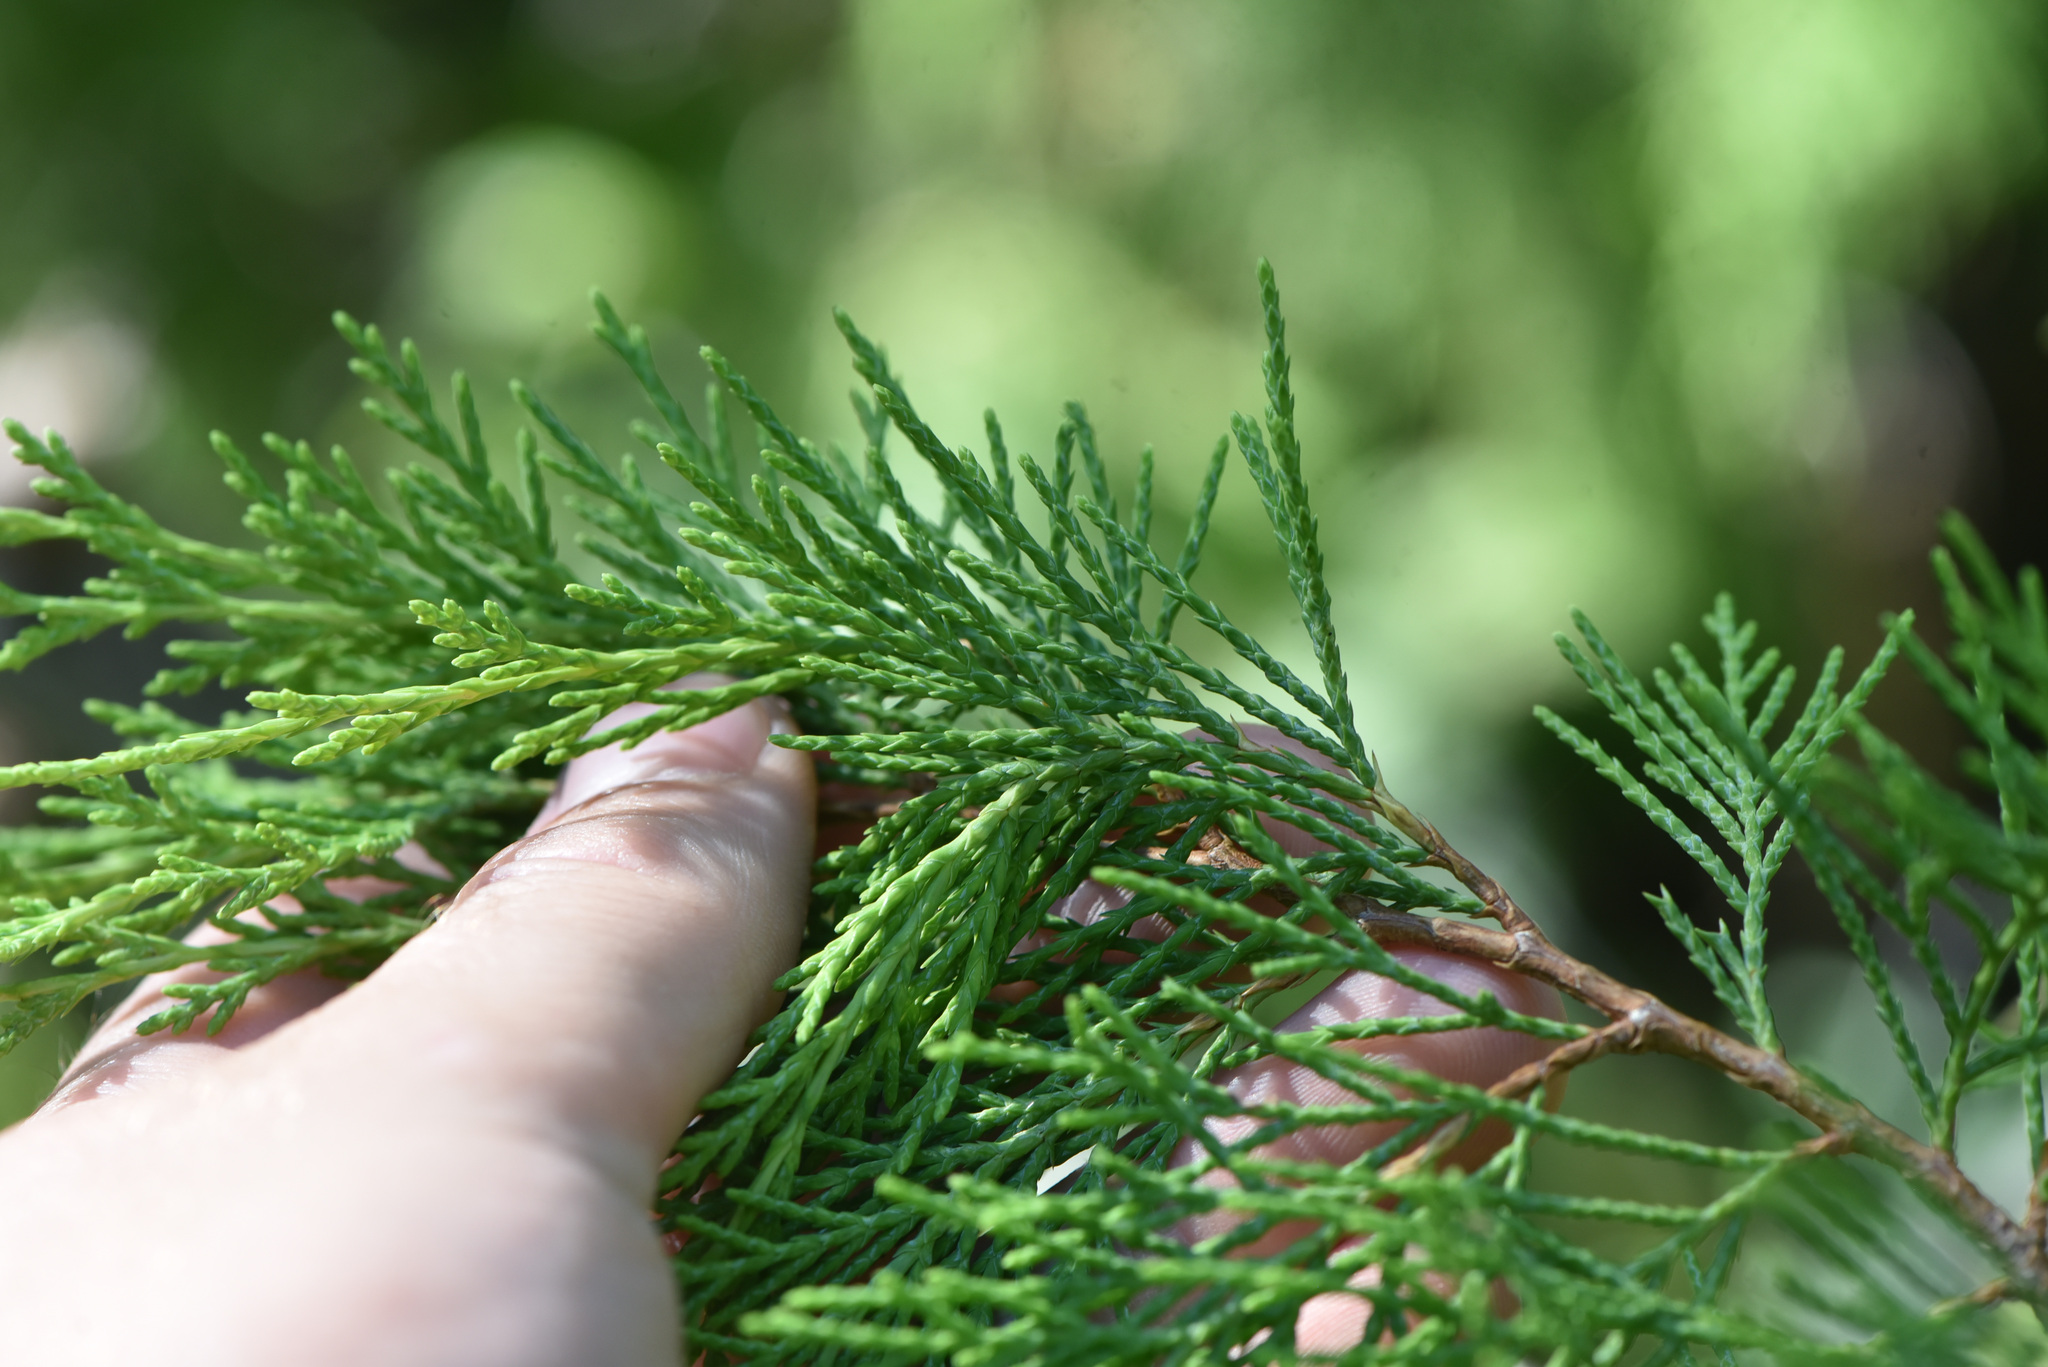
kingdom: Plantae
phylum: Tracheophyta
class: Pinopsida
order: Pinales
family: Cupressaceae
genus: Juniperus
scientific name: Juniperus scopulorum
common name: Rocky mountain juniper
